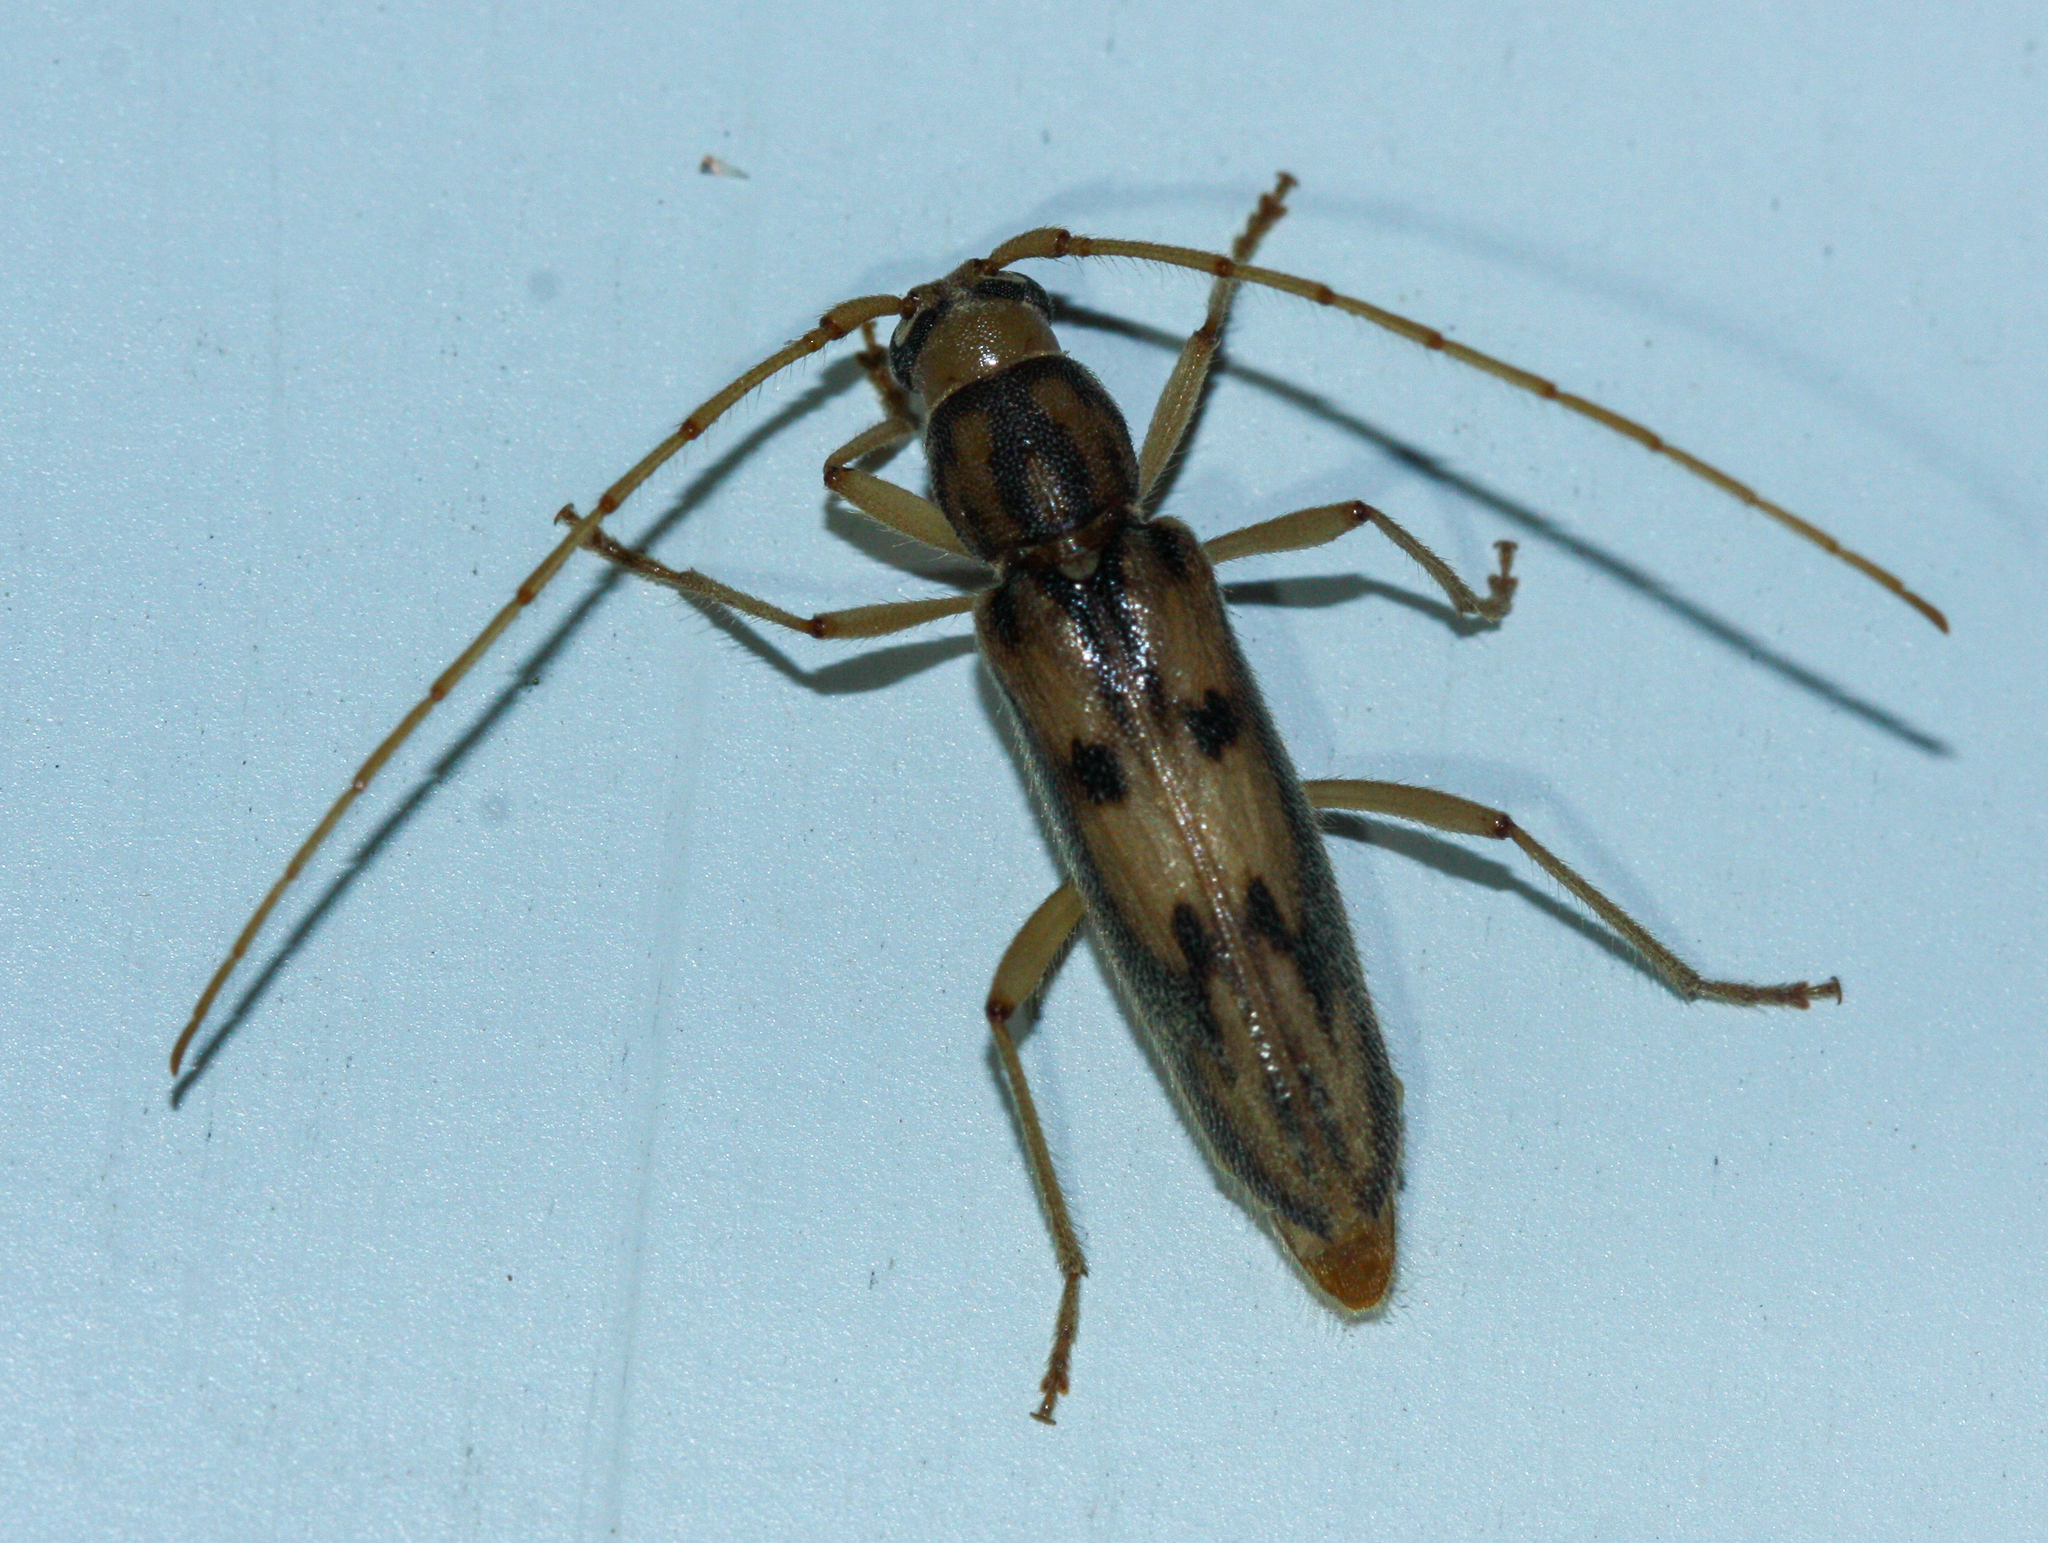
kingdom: Animalia
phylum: Arthropoda
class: Insecta
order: Coleoptera
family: Cerambycidae
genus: Achryson
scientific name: Achryson surinamum
